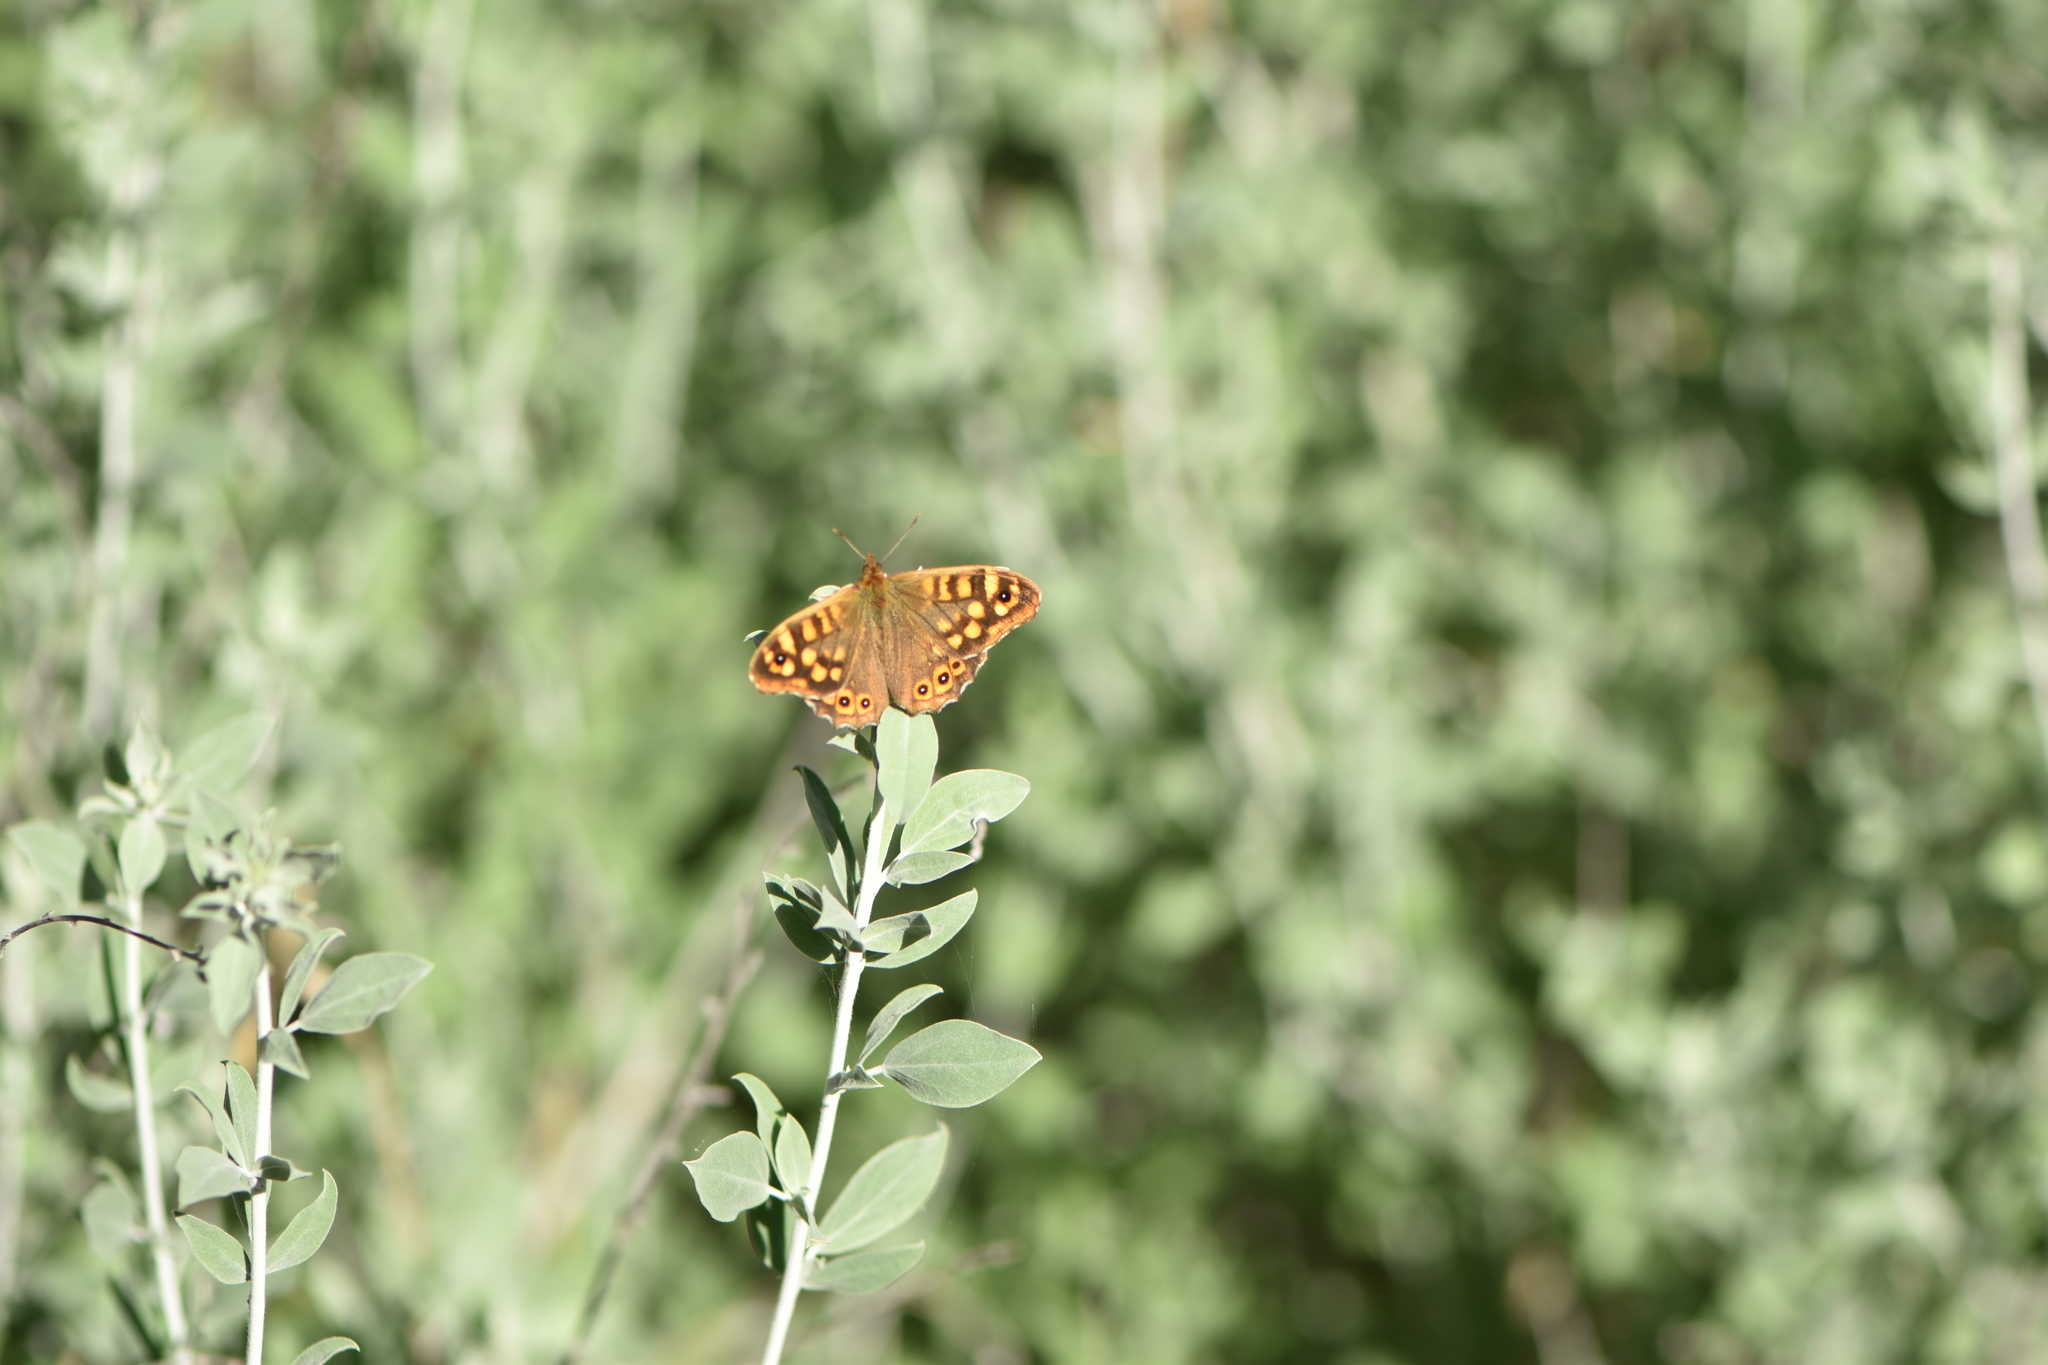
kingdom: Animalia
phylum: Arthropoda
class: Insecta
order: Lepidoptera
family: Nymphalidae
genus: Pararge
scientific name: Pararge aegeria
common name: Speckled wood
